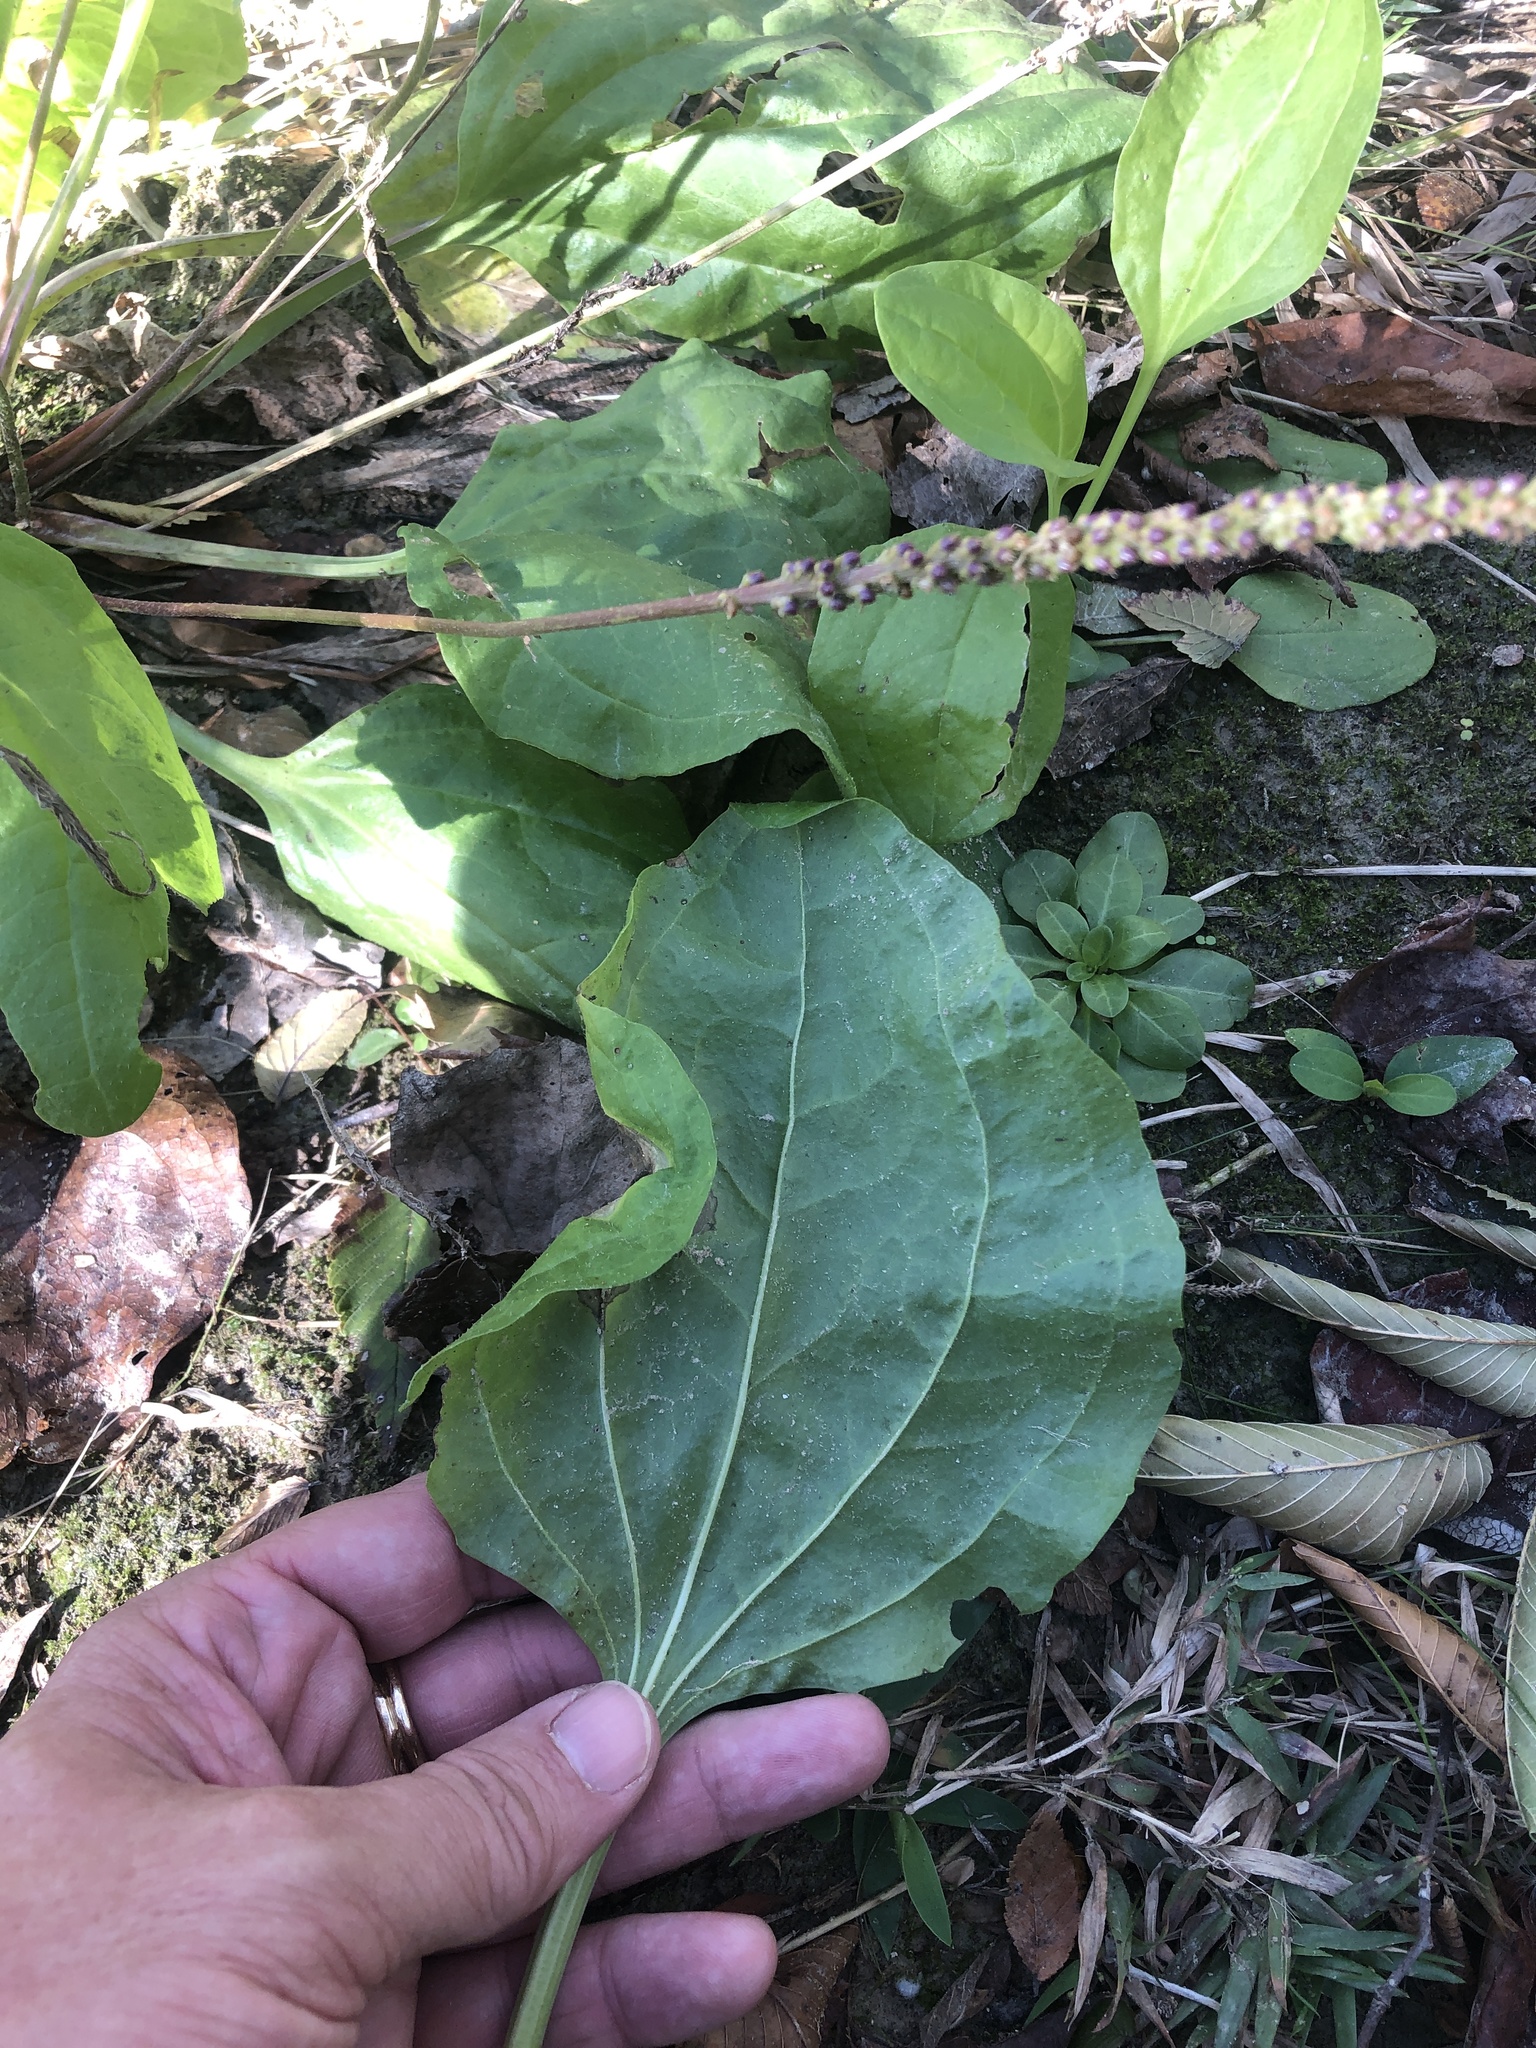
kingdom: Plantae
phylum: Tracheophyta
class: Magnoliopsida
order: Lamiales
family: Plantaginaceae
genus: Plantago
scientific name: Plantago major
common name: Common plantain
